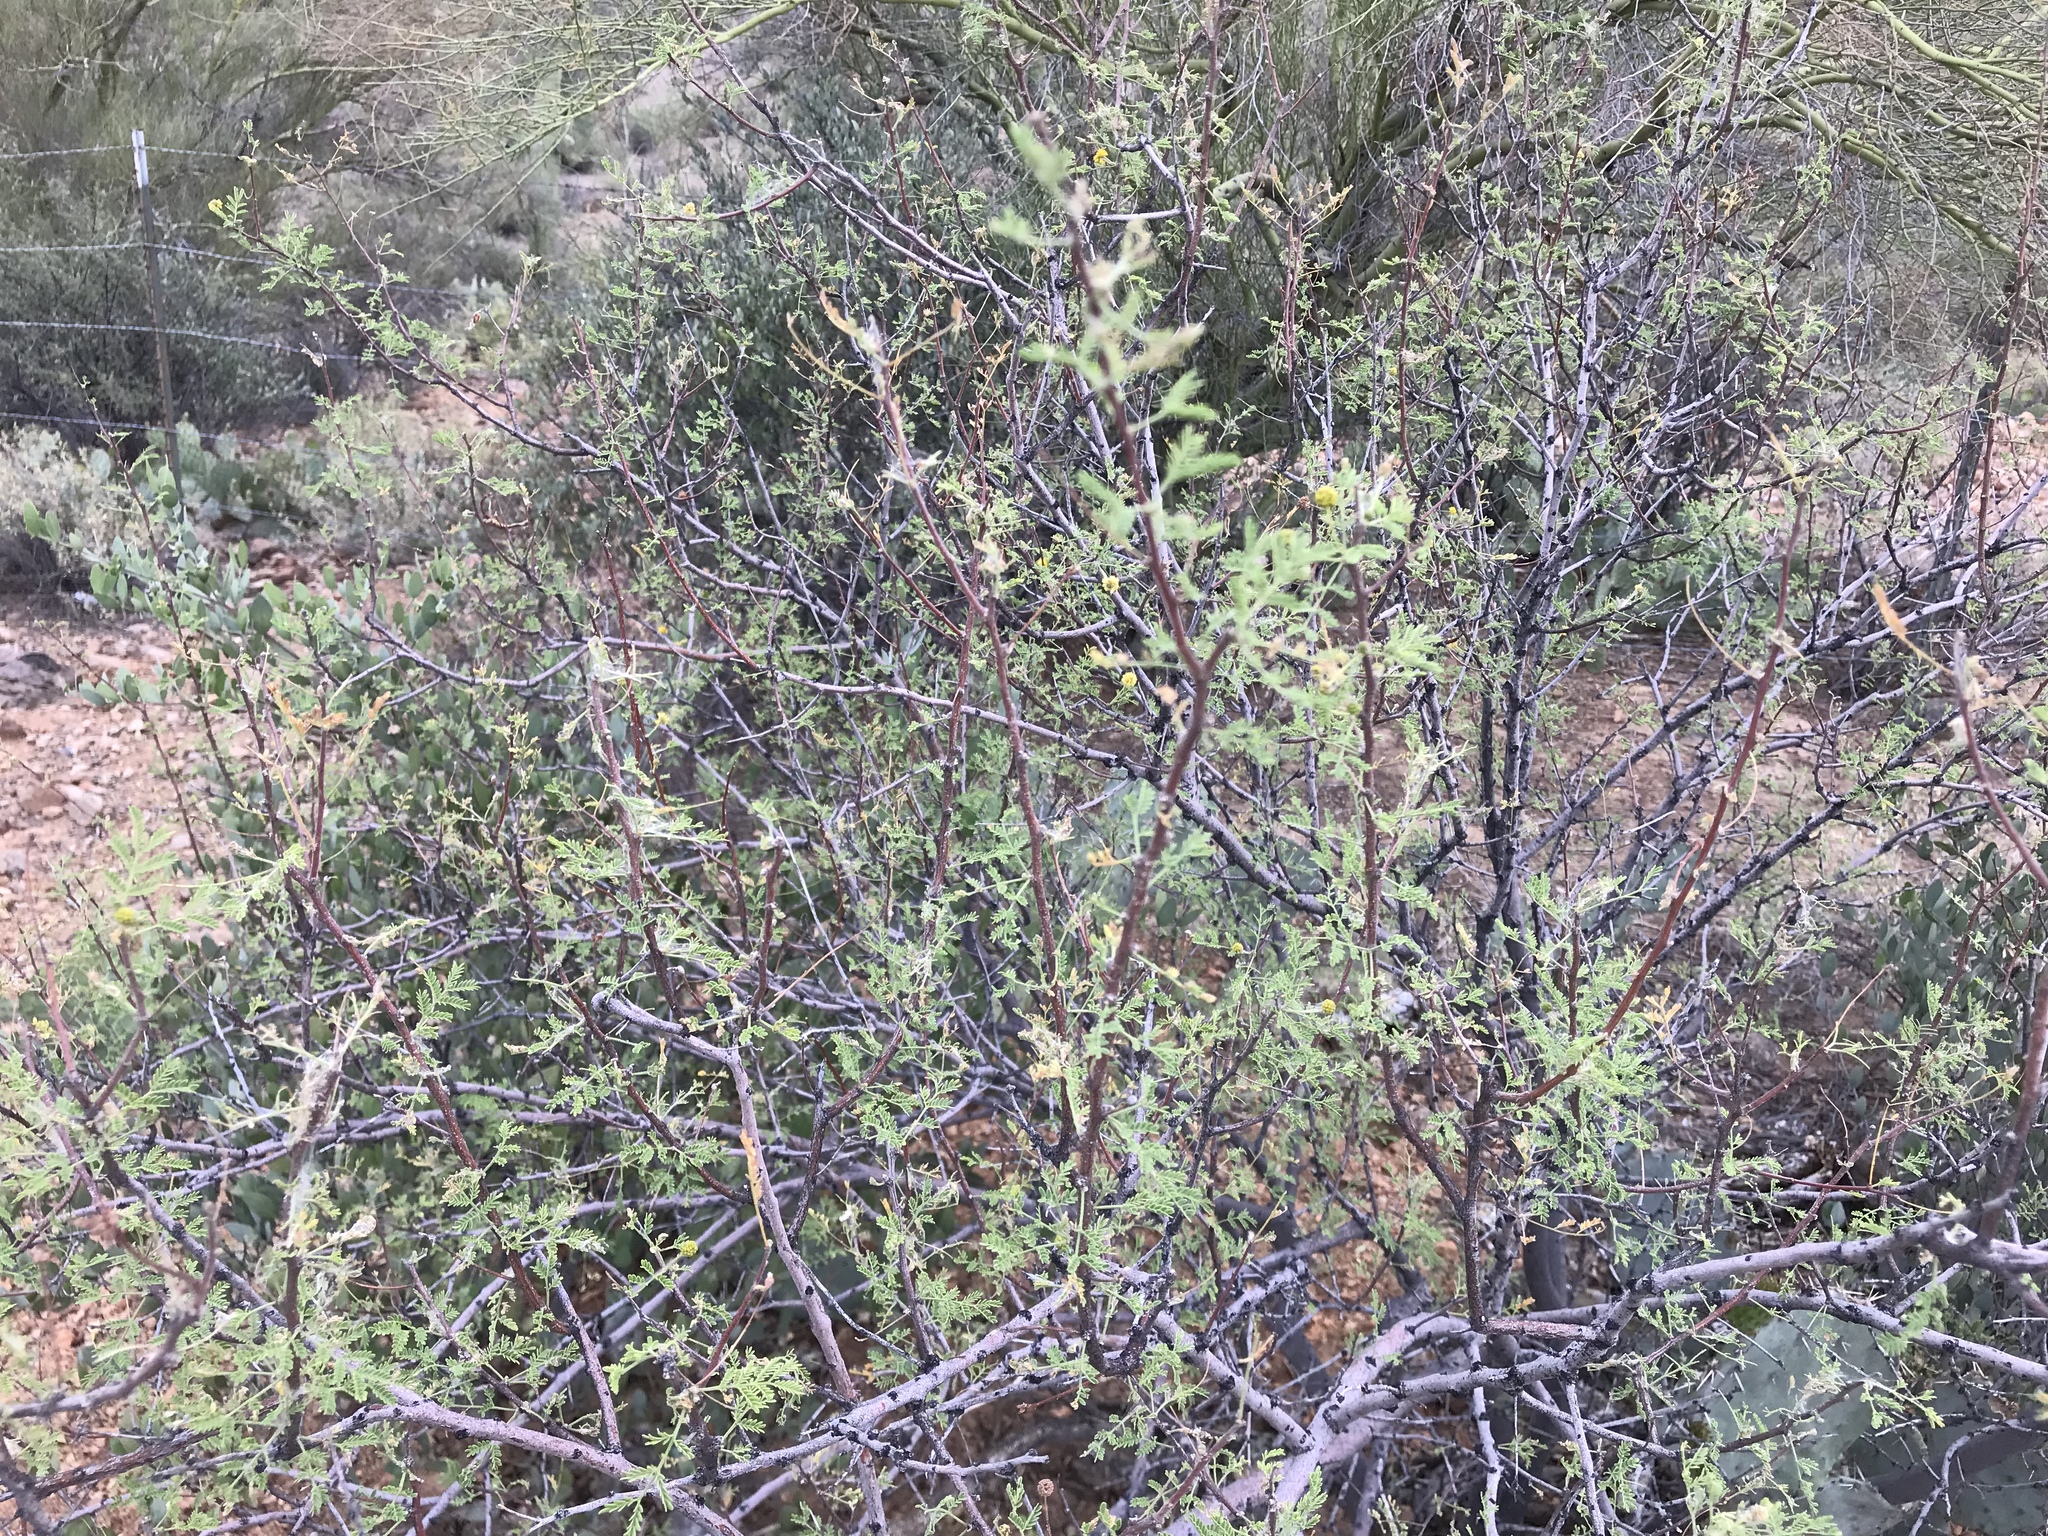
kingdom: Plantae
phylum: Tracheophyta
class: Magnoliopsida
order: Fabales
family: Fabaceae
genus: Vachellia
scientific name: Vachellia constricta
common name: Mescat acacia
